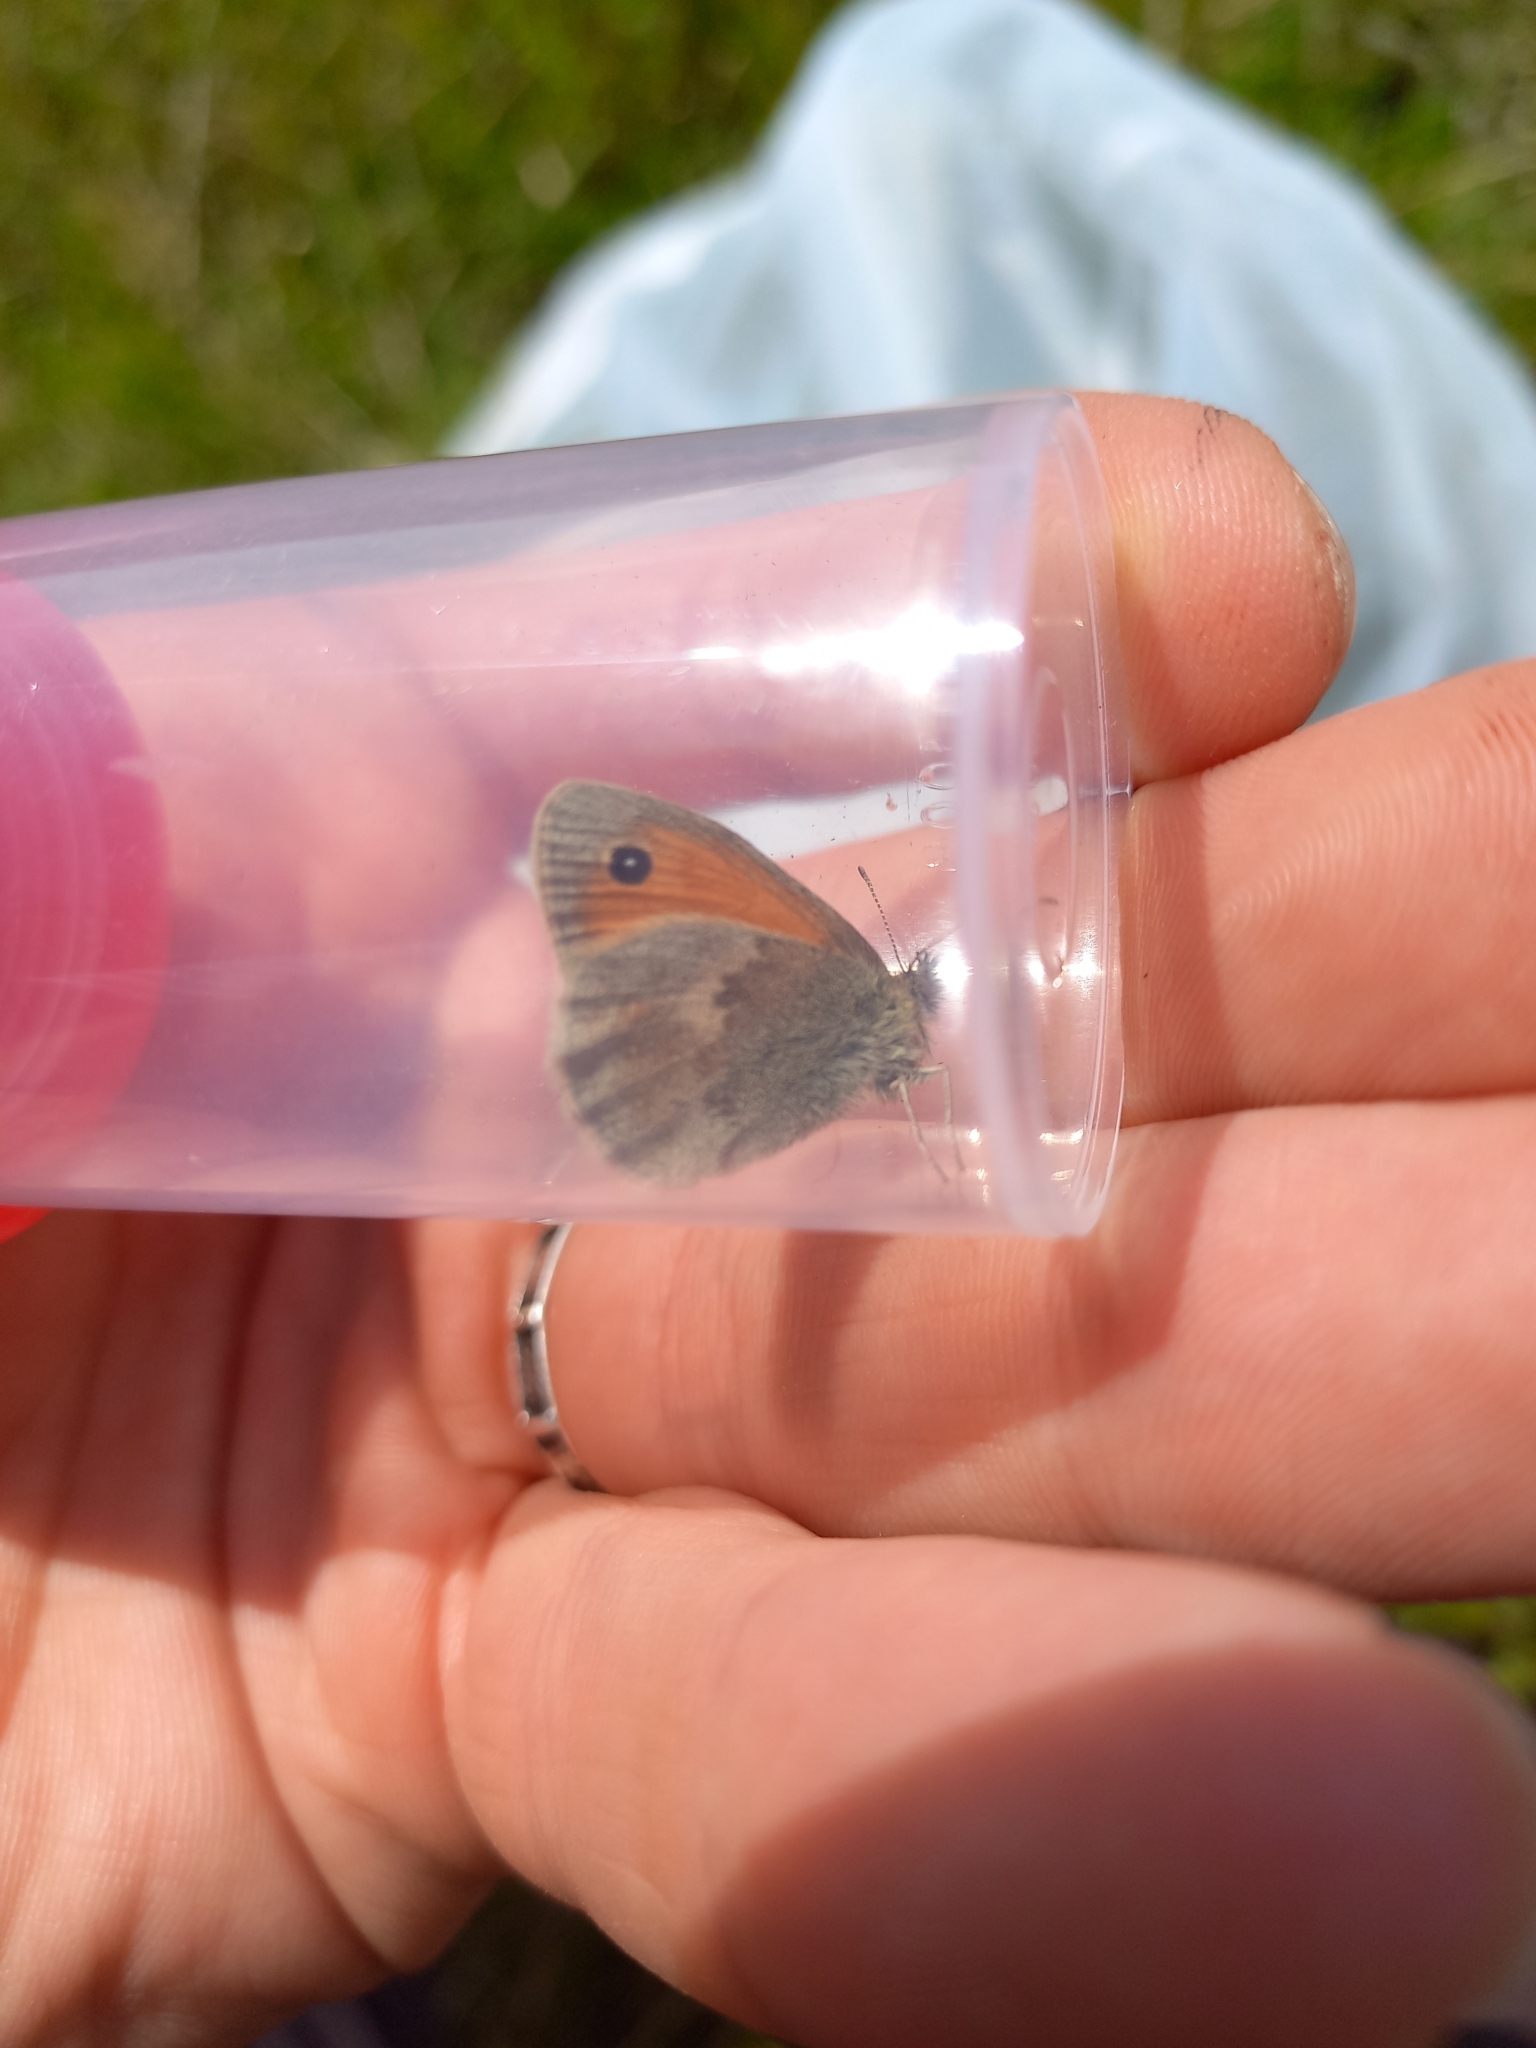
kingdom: Animalia
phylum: Arthropoda
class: Insecta
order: Lepidoptera
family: Nymphalidae
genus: Coenonympha
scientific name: Coenonympha pamphilus
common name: Small heath
